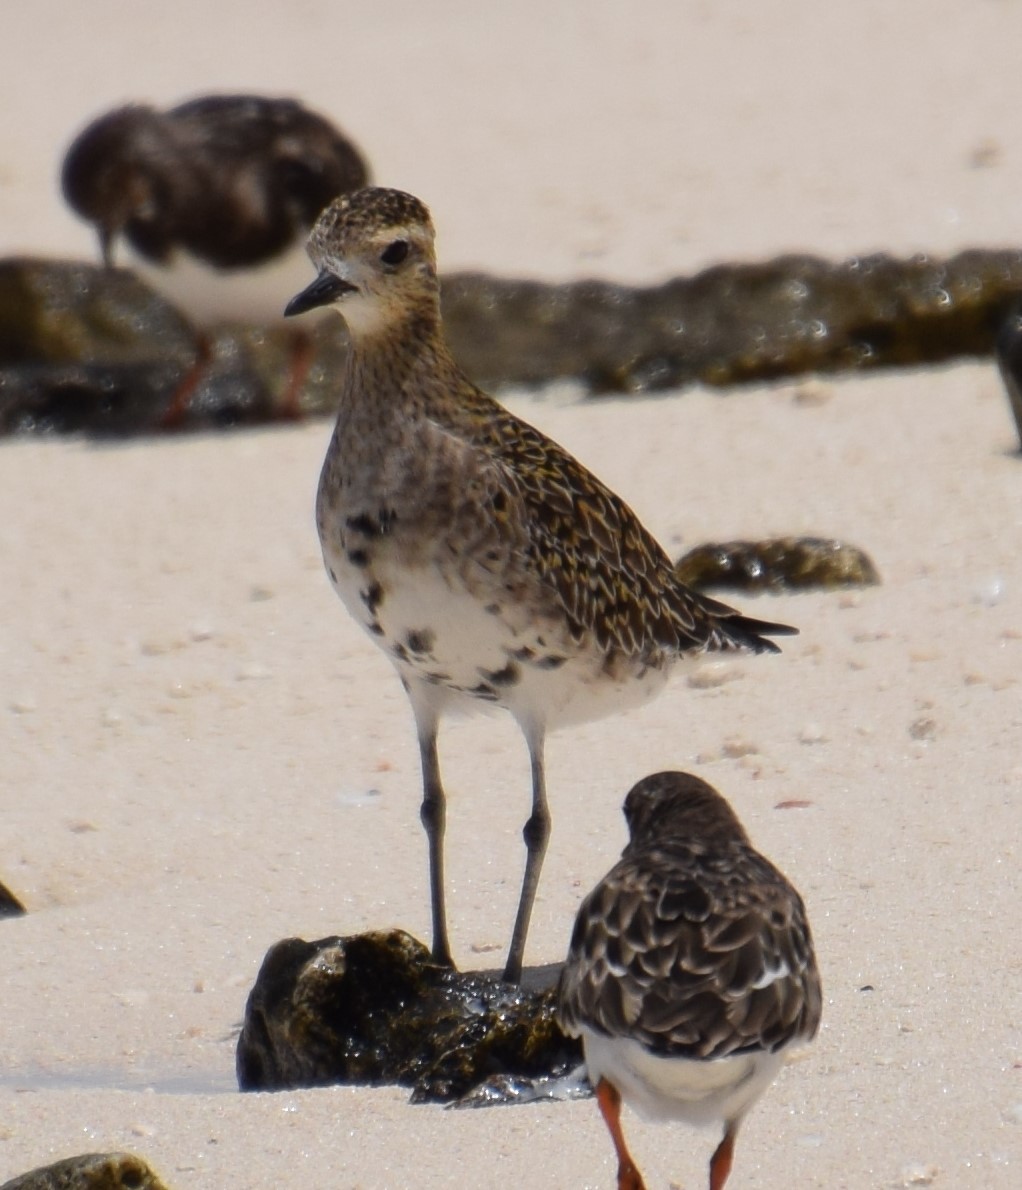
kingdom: Animalia
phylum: Chordata
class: Aves
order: Charadriiformes
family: Charadriidae
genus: Pluvialis
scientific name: Pluvialis fulva
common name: Pacific golden plover
